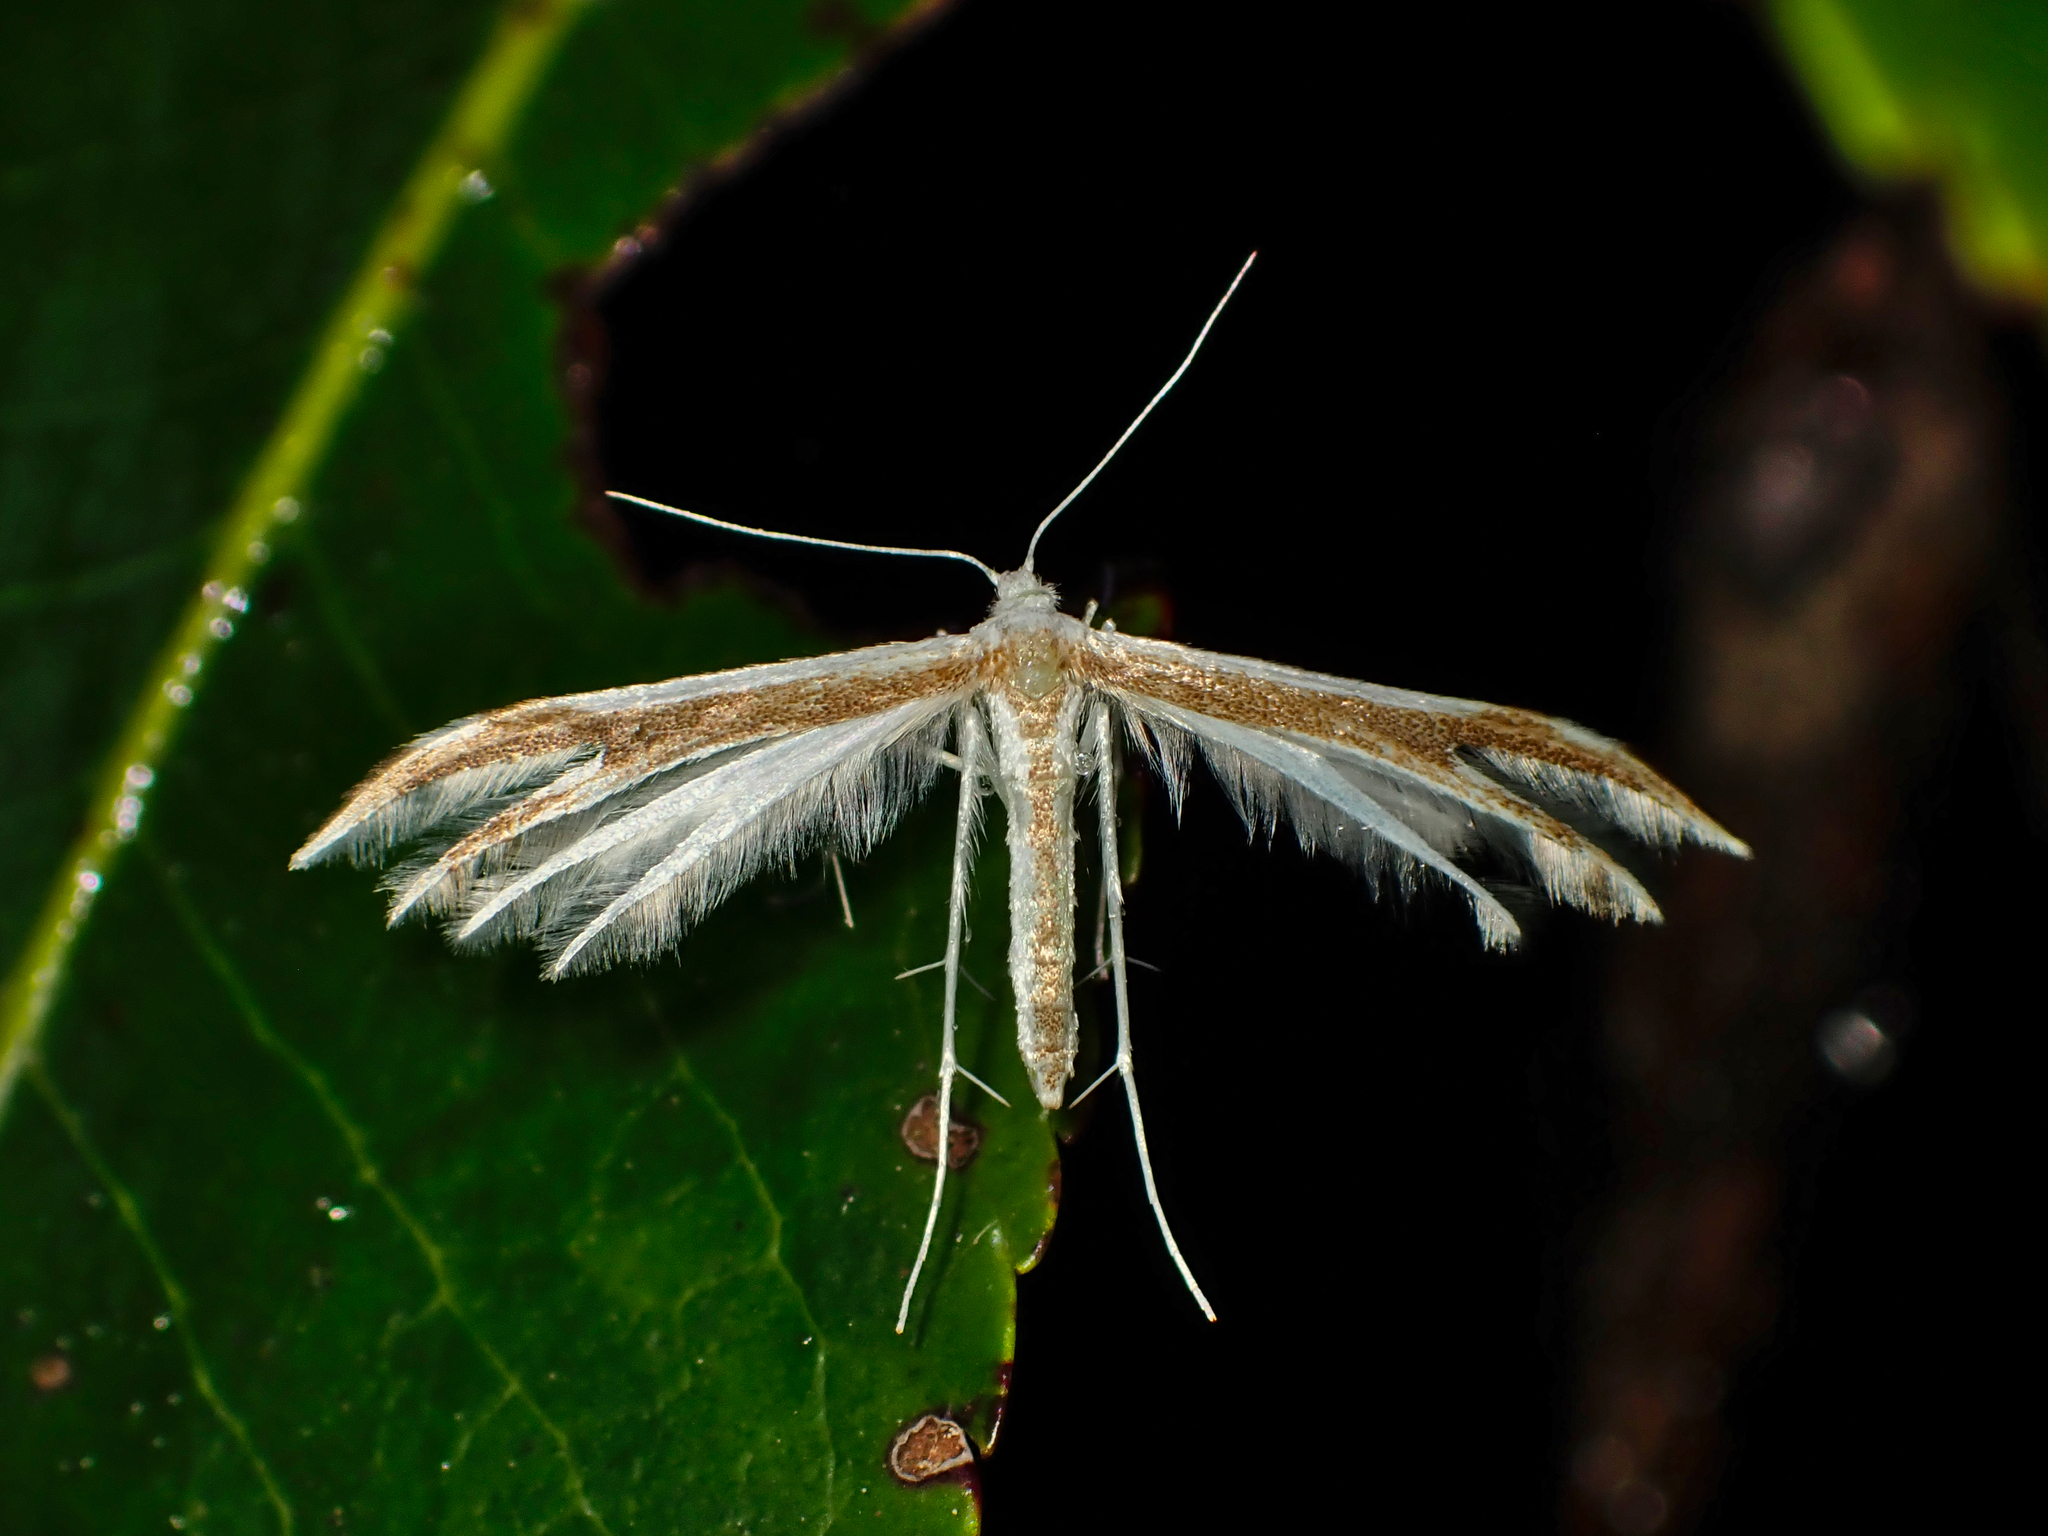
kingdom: Animalia
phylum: Arthropoda
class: Insecta
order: Lepidoptera
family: Pterophoridae
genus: Pterophorus
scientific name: Pterophorus furcatalis
